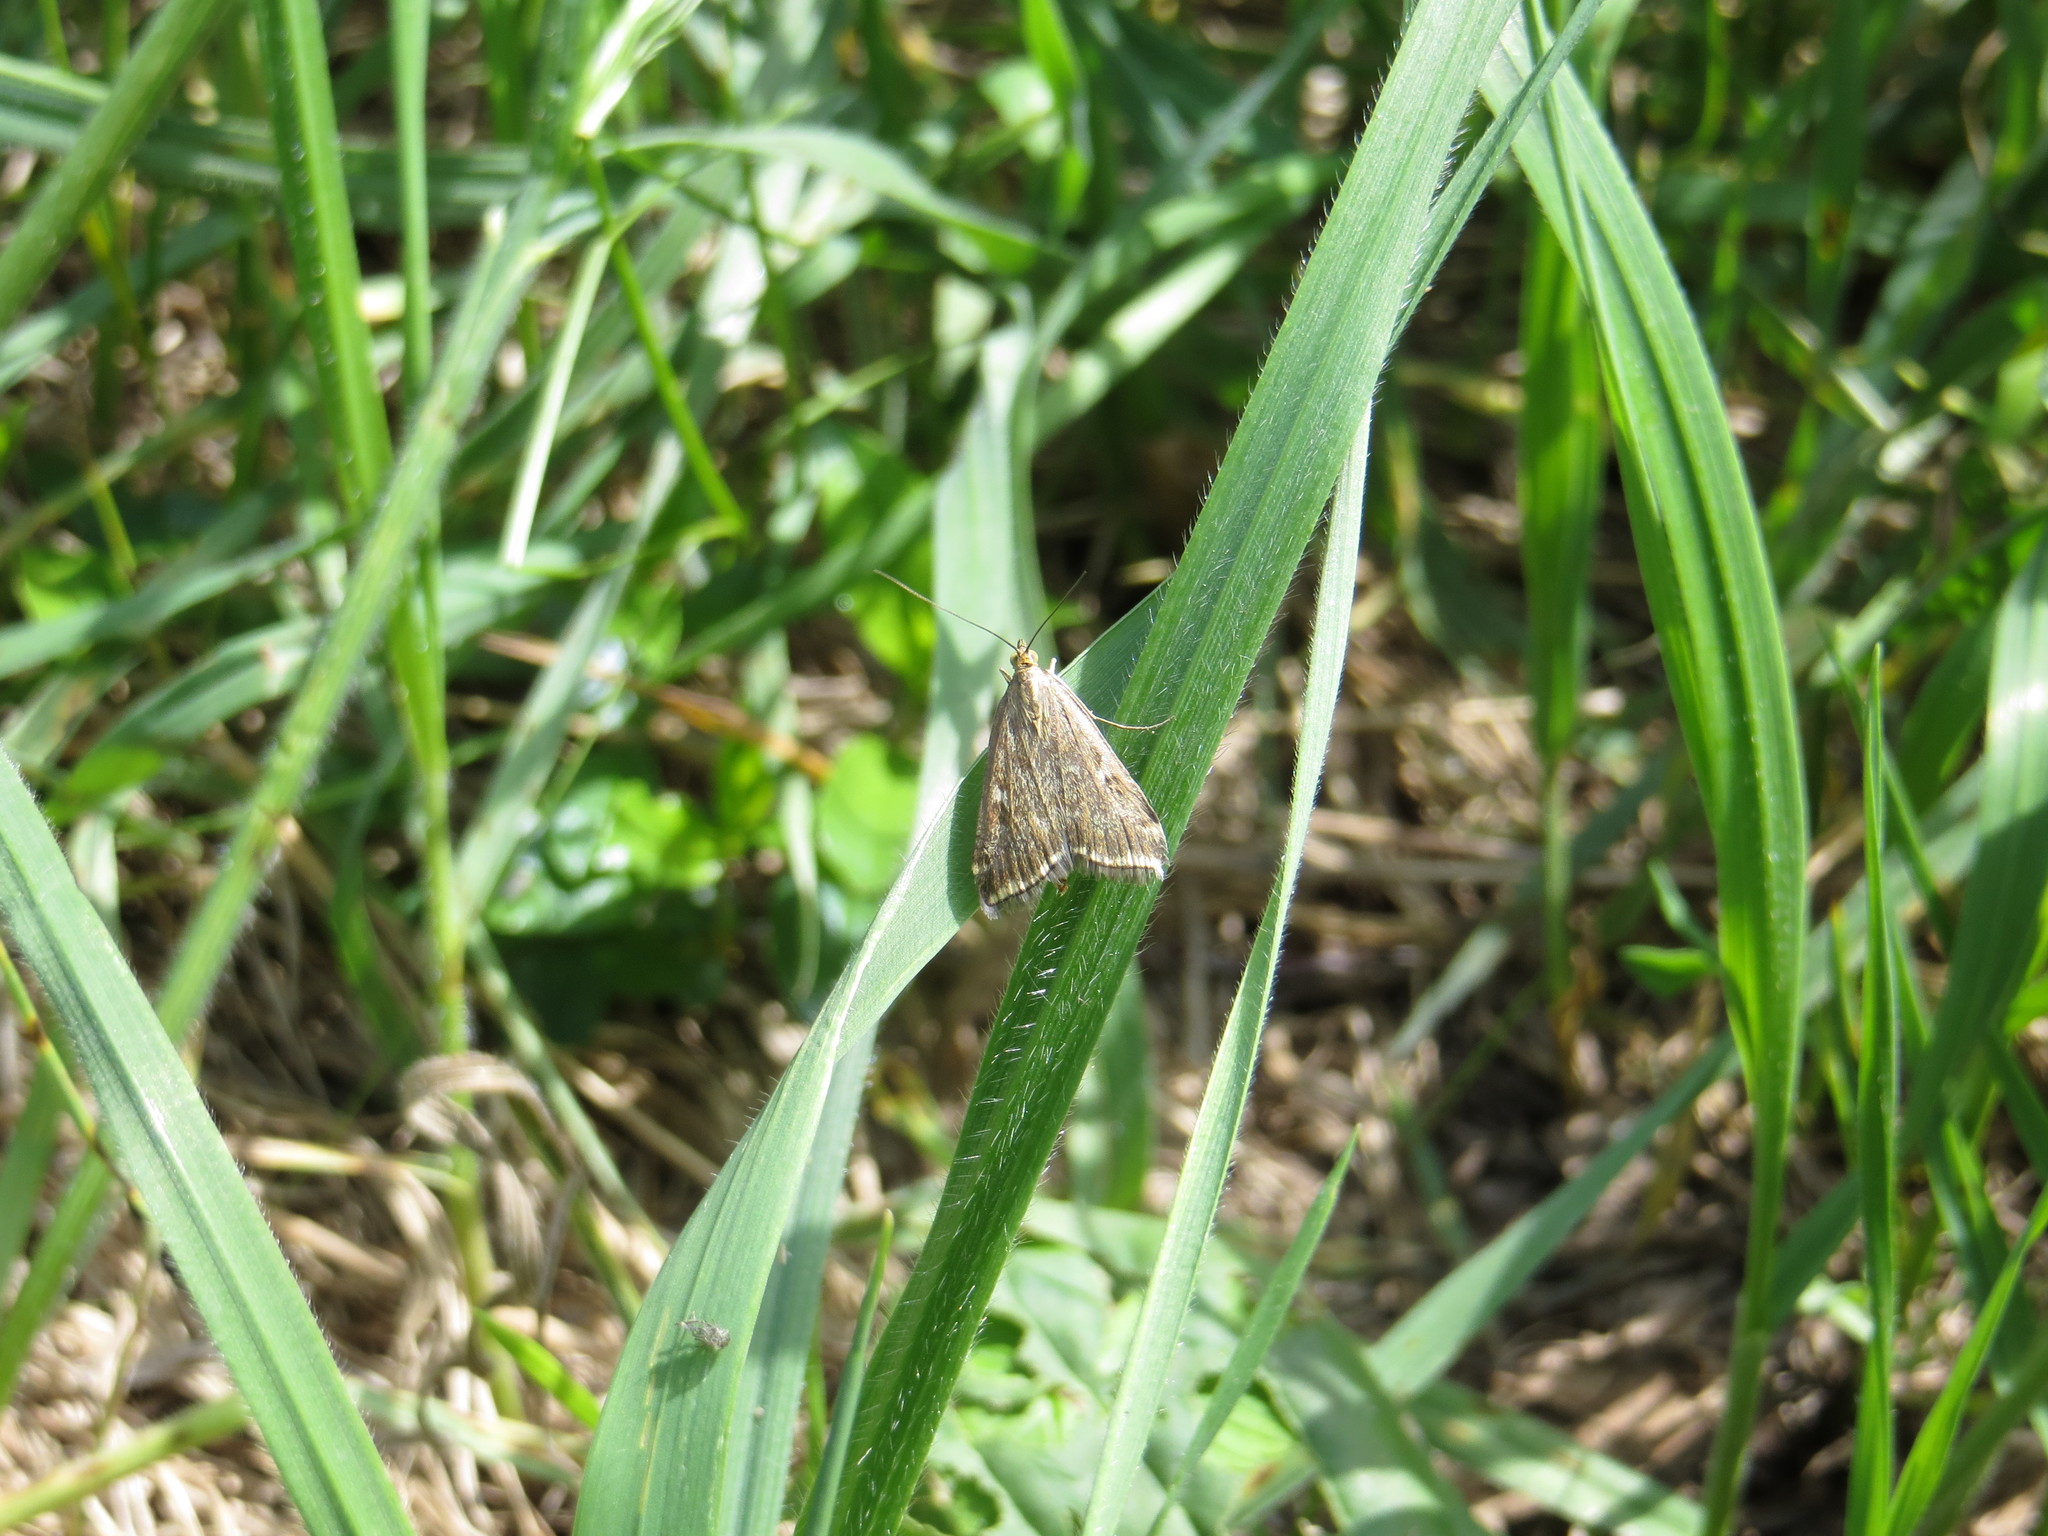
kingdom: Animalia
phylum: Arthropoda
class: Insecta
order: Lepidoptera
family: Crambidae
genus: Loxostege
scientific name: Loxostege sticticalis
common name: Crambid moth
